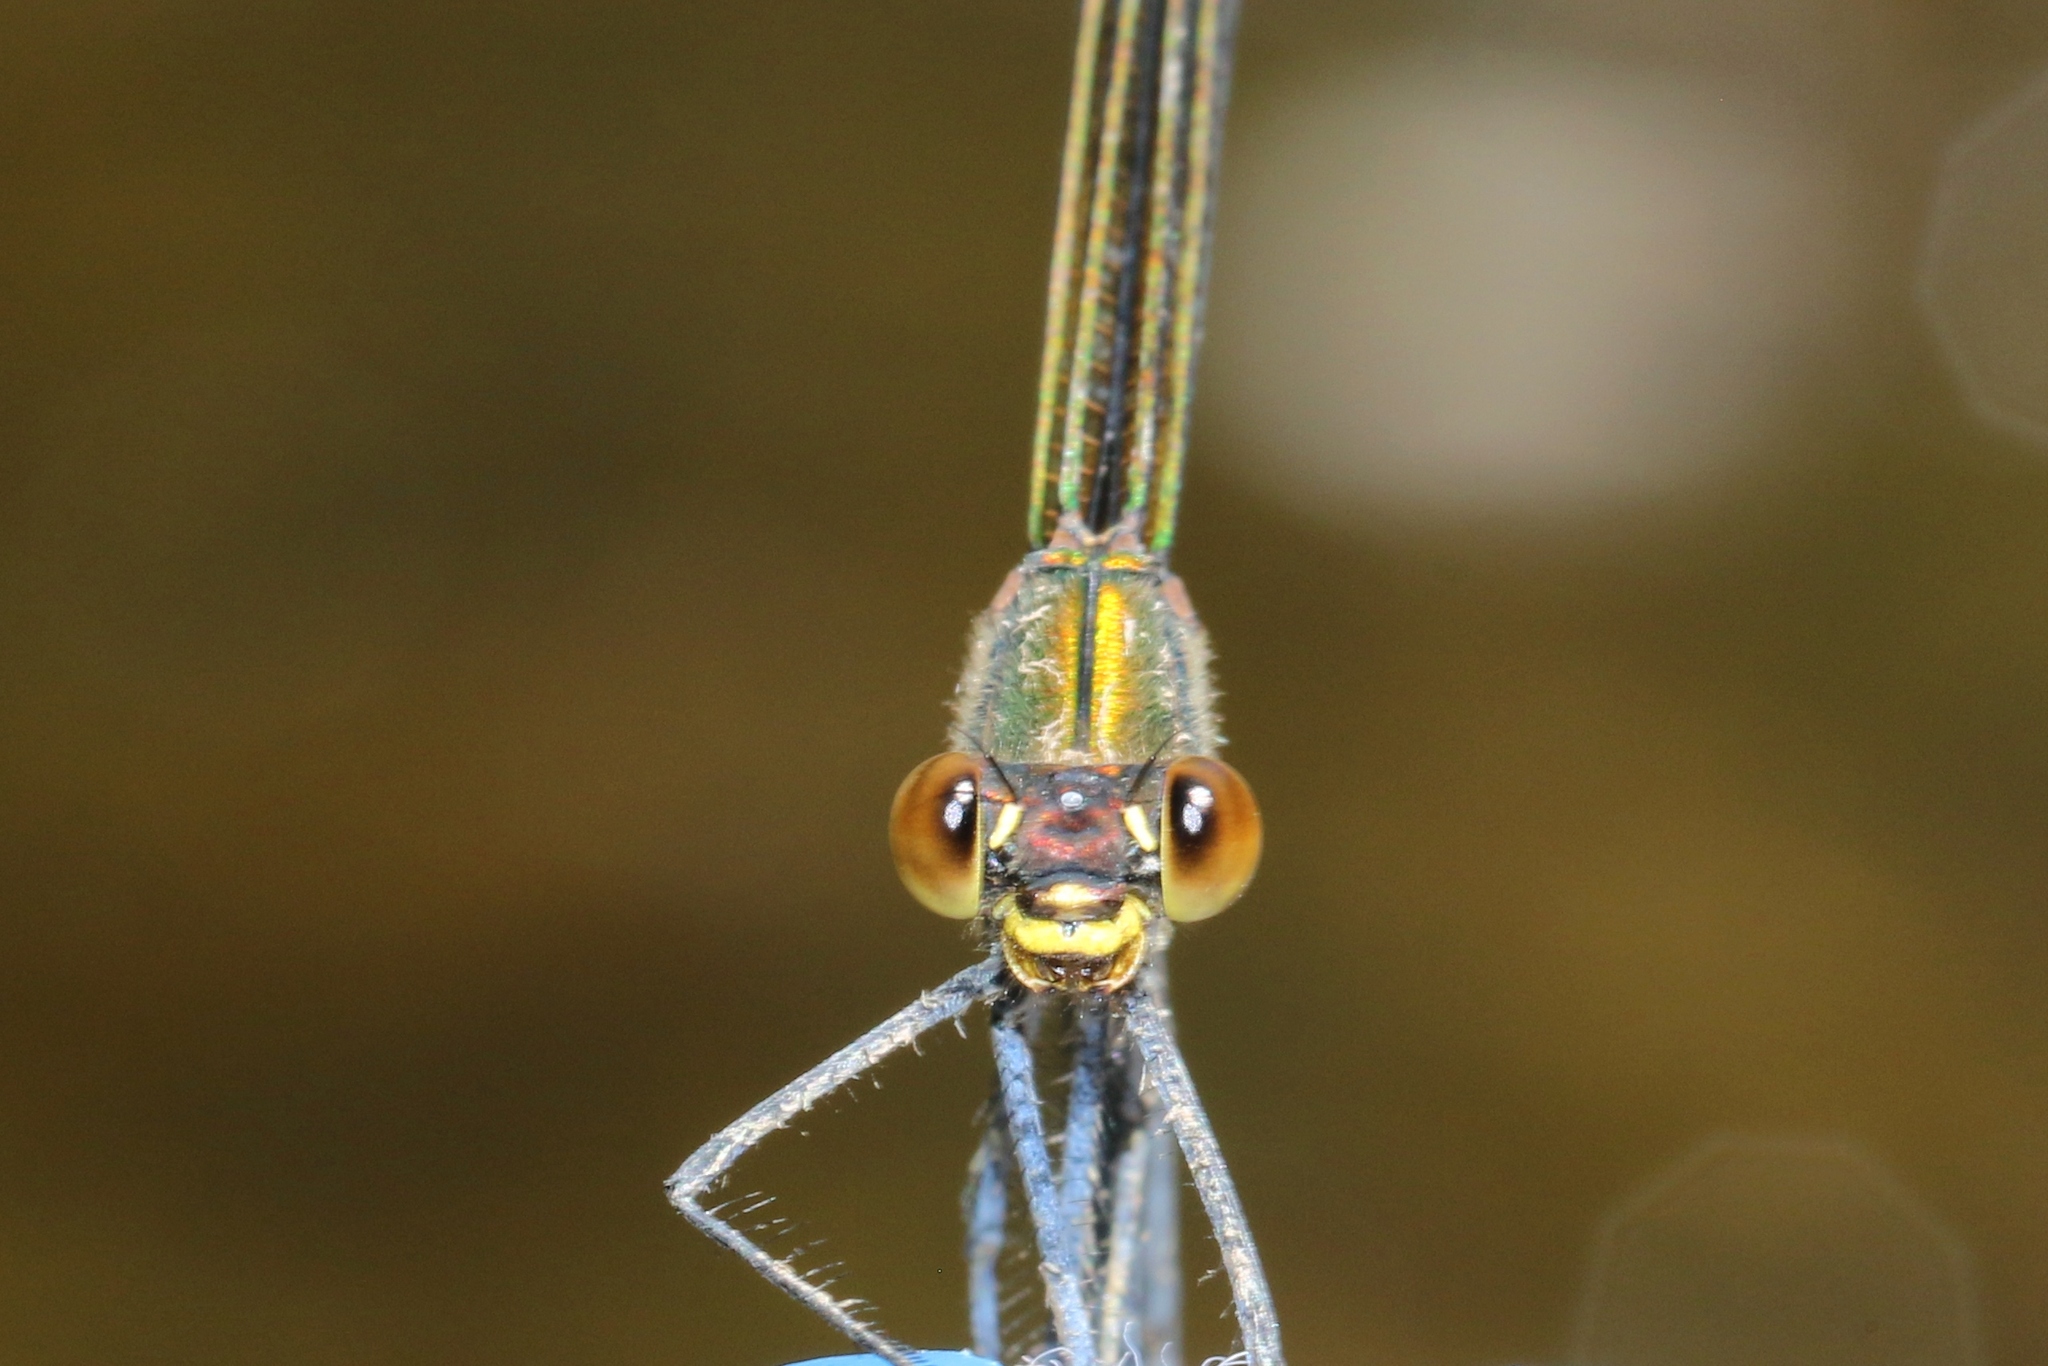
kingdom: Animalia
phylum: Arthropoda
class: Insecta
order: Odonata
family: Calopterygidae
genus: Calopteryx
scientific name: Calopteryx amata
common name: Superb jewelwing
